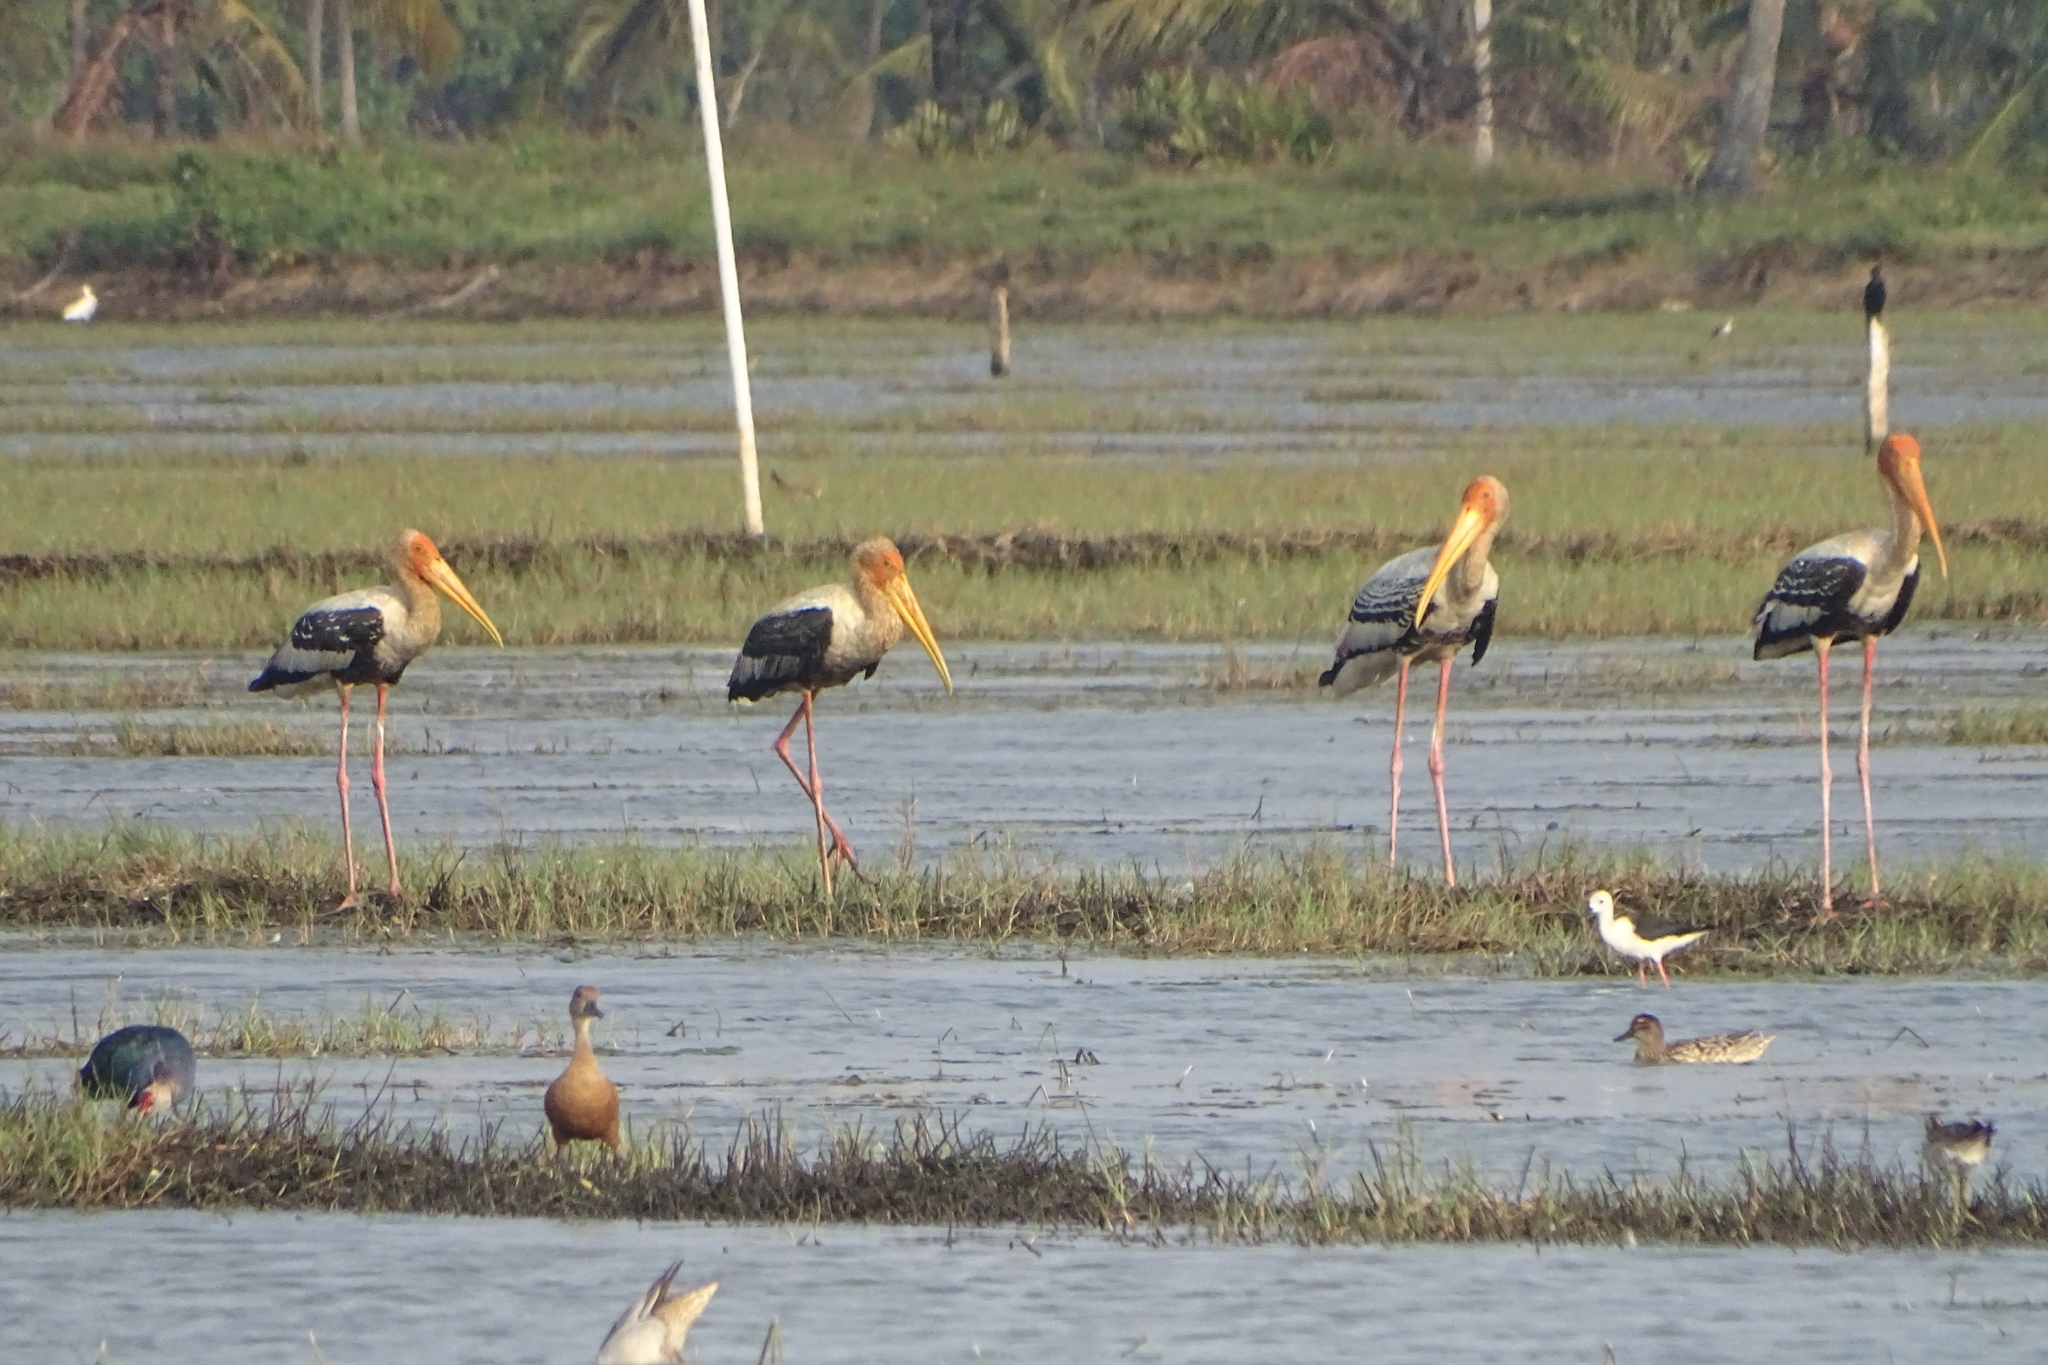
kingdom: Animalia
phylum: Chordata
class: Aves
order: Ciconiiformes
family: Ciconiidae
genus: Mycteria
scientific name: Mycteria leucocephala
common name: Painted stork
